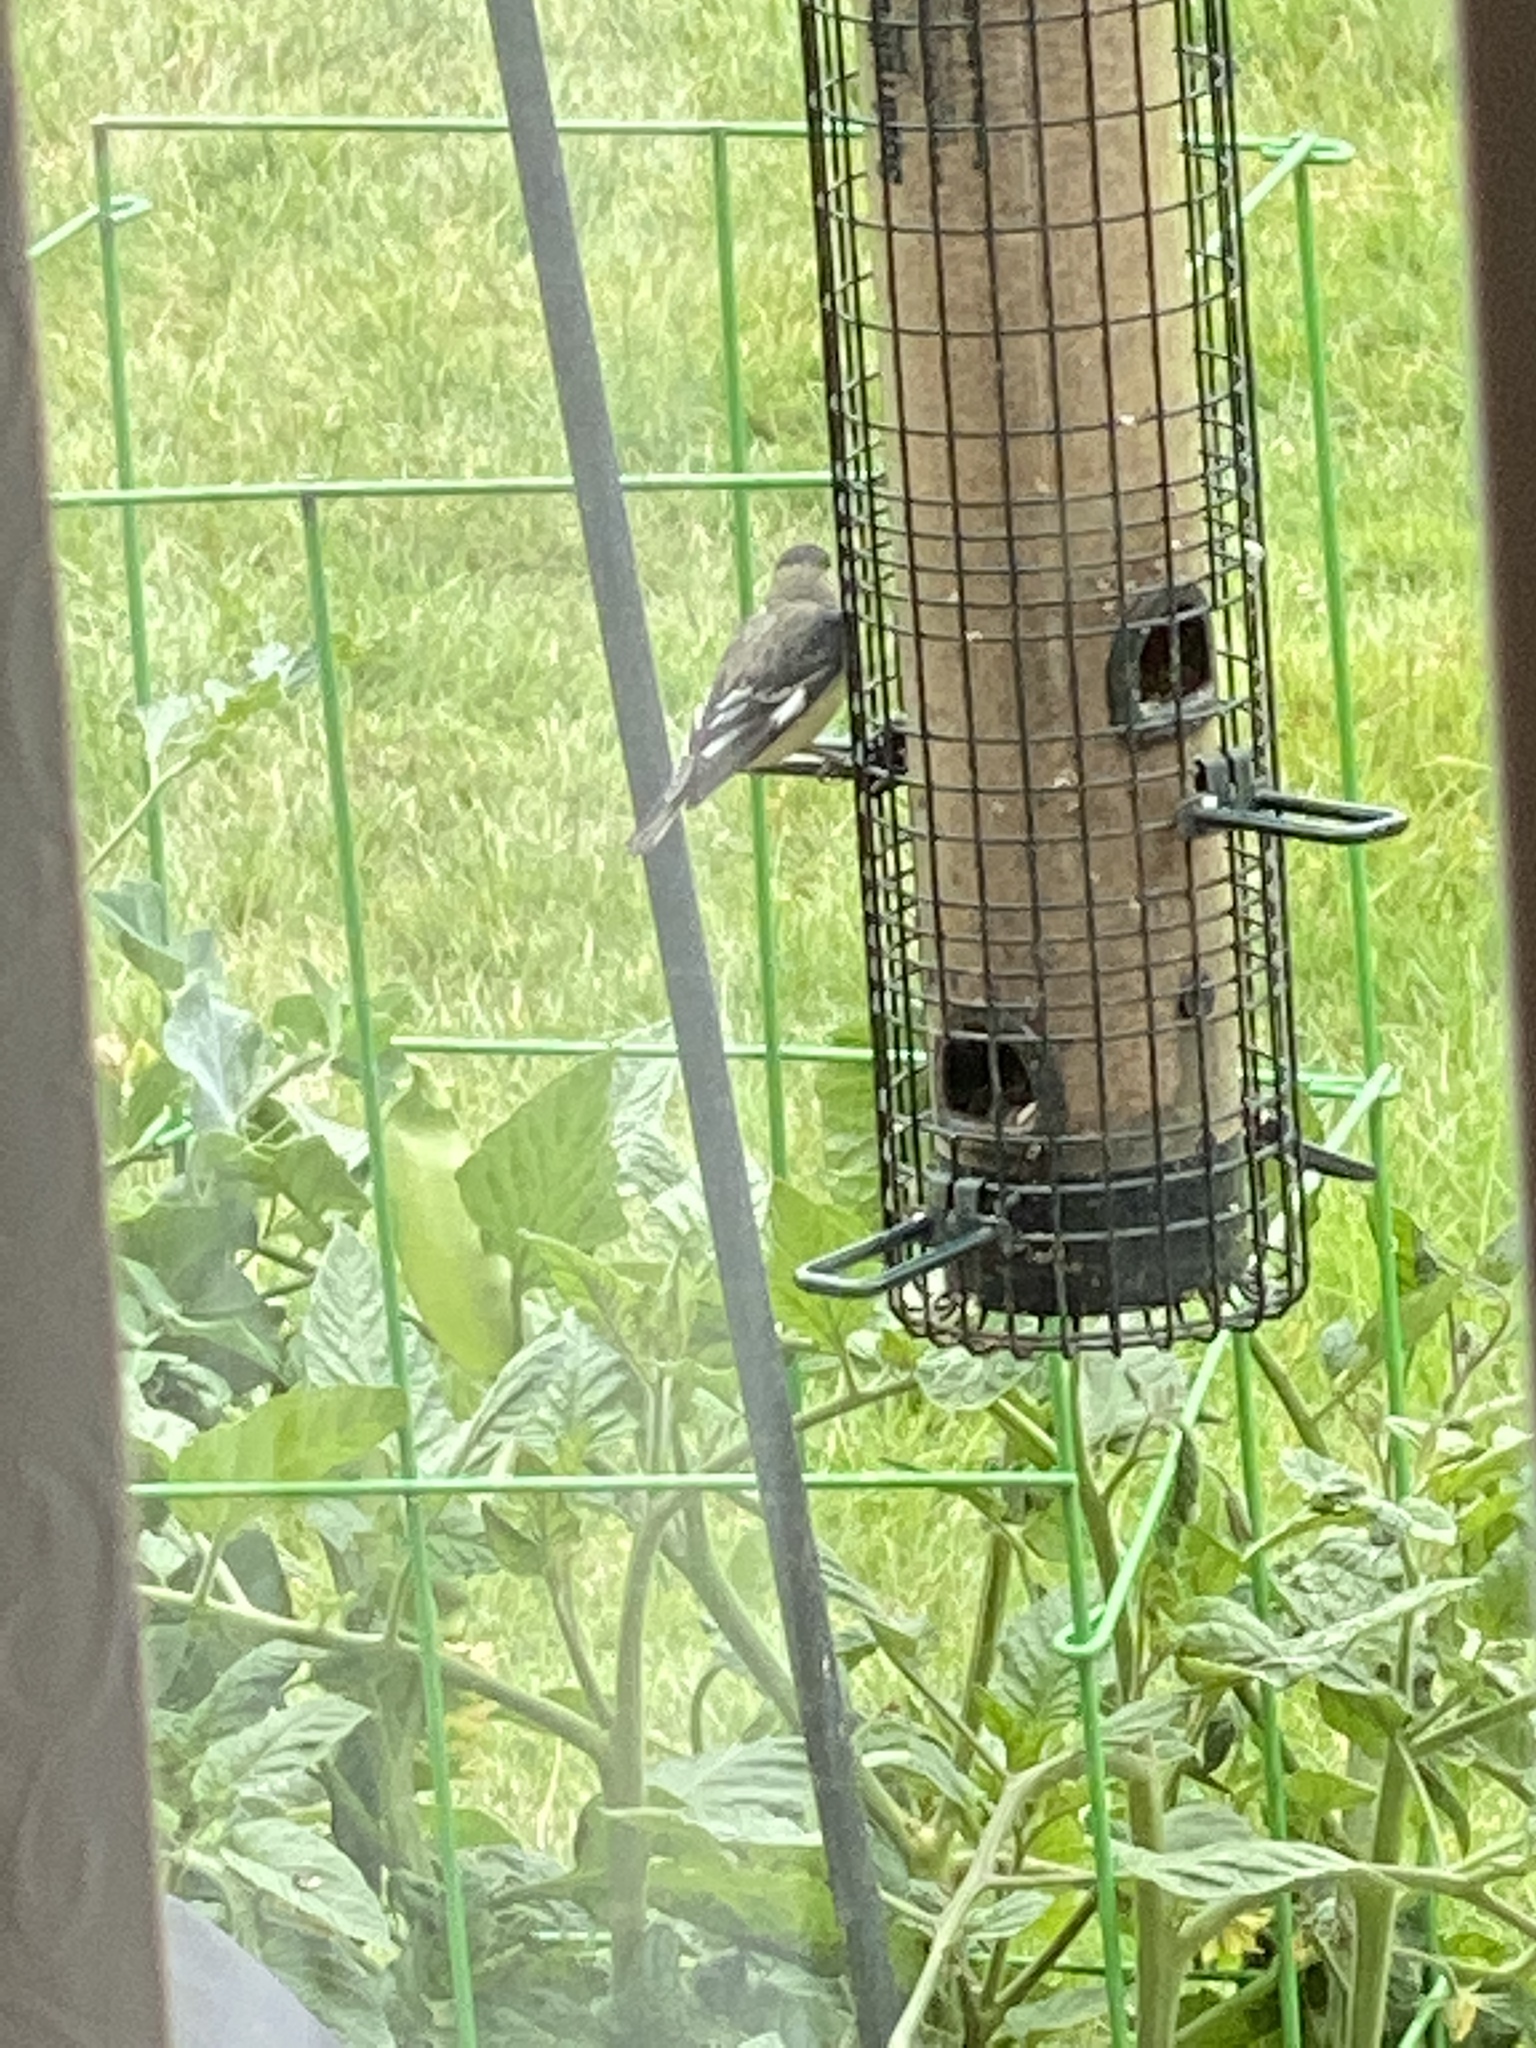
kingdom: Animalia
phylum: Chordata
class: Aves
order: Passeriformes
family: Fringillidae
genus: Spinus
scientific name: Spinus psaltria
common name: Lesser goldfinch
